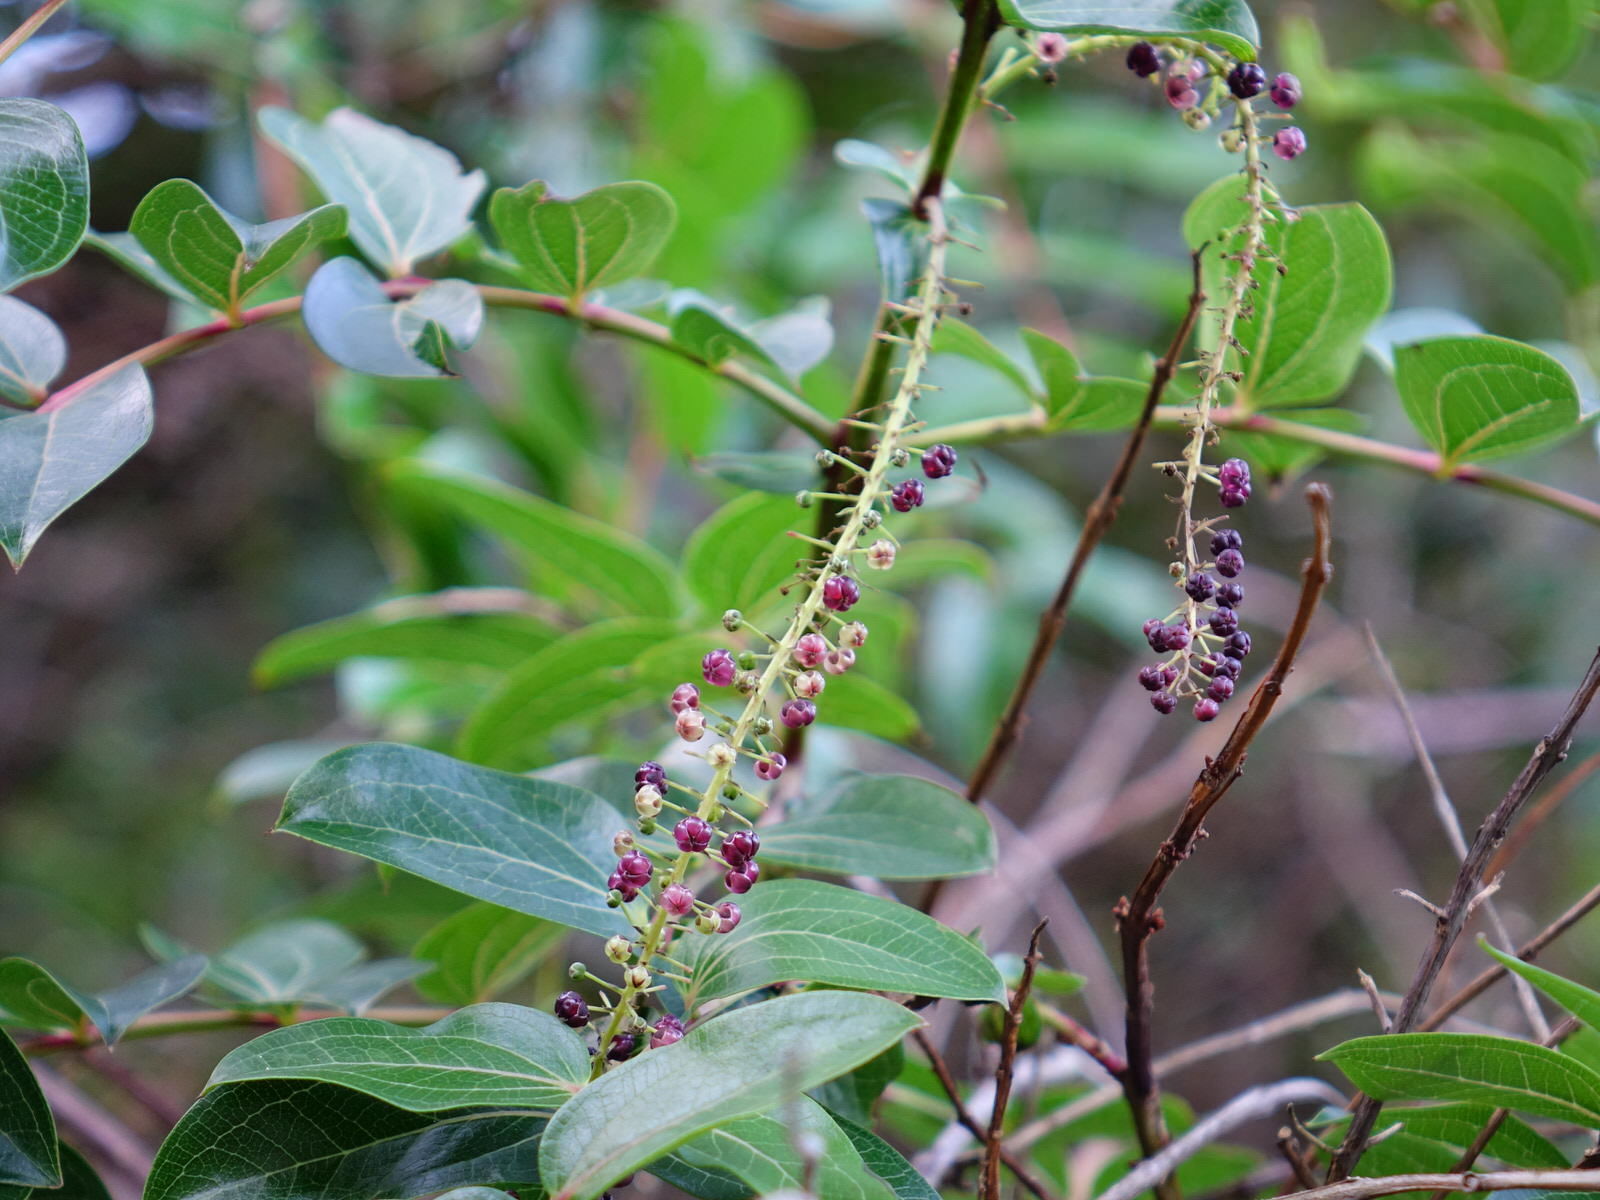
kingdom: Plantae
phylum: Tracheophyta
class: Magnoliopsida
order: Cucurbitales
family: Coriariaceae
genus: Coriaria
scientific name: Coriaria arborea
